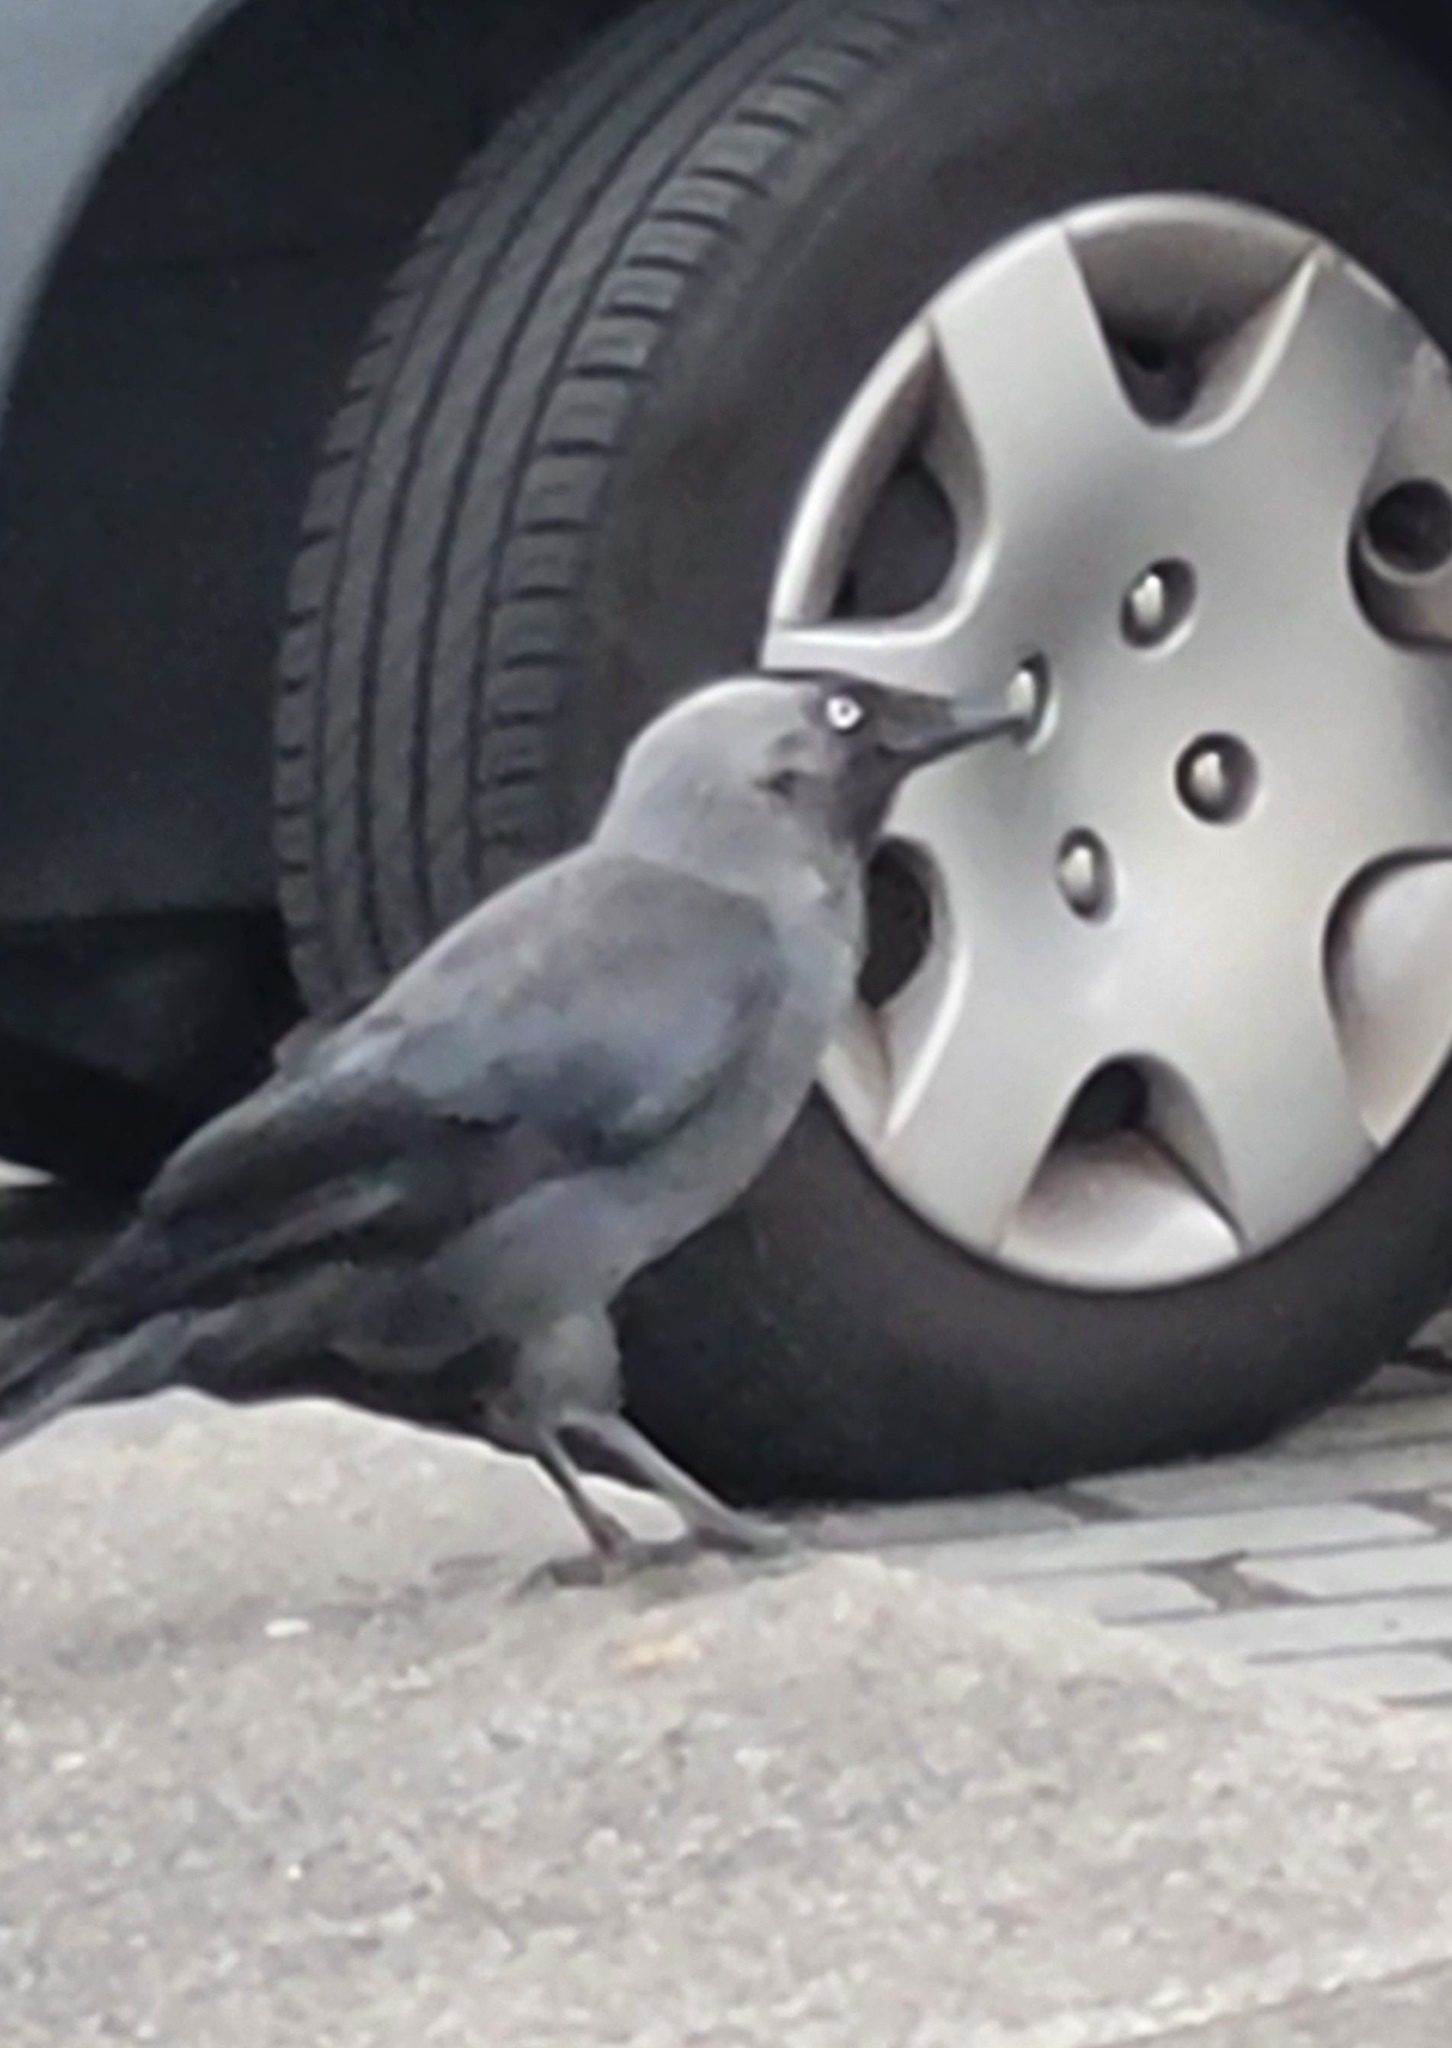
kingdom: Animalia
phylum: Chordata
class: Aves
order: Passeriformes
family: Corvidae
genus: Coloeus
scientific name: Coloeus monedula
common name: Western jackdaw
